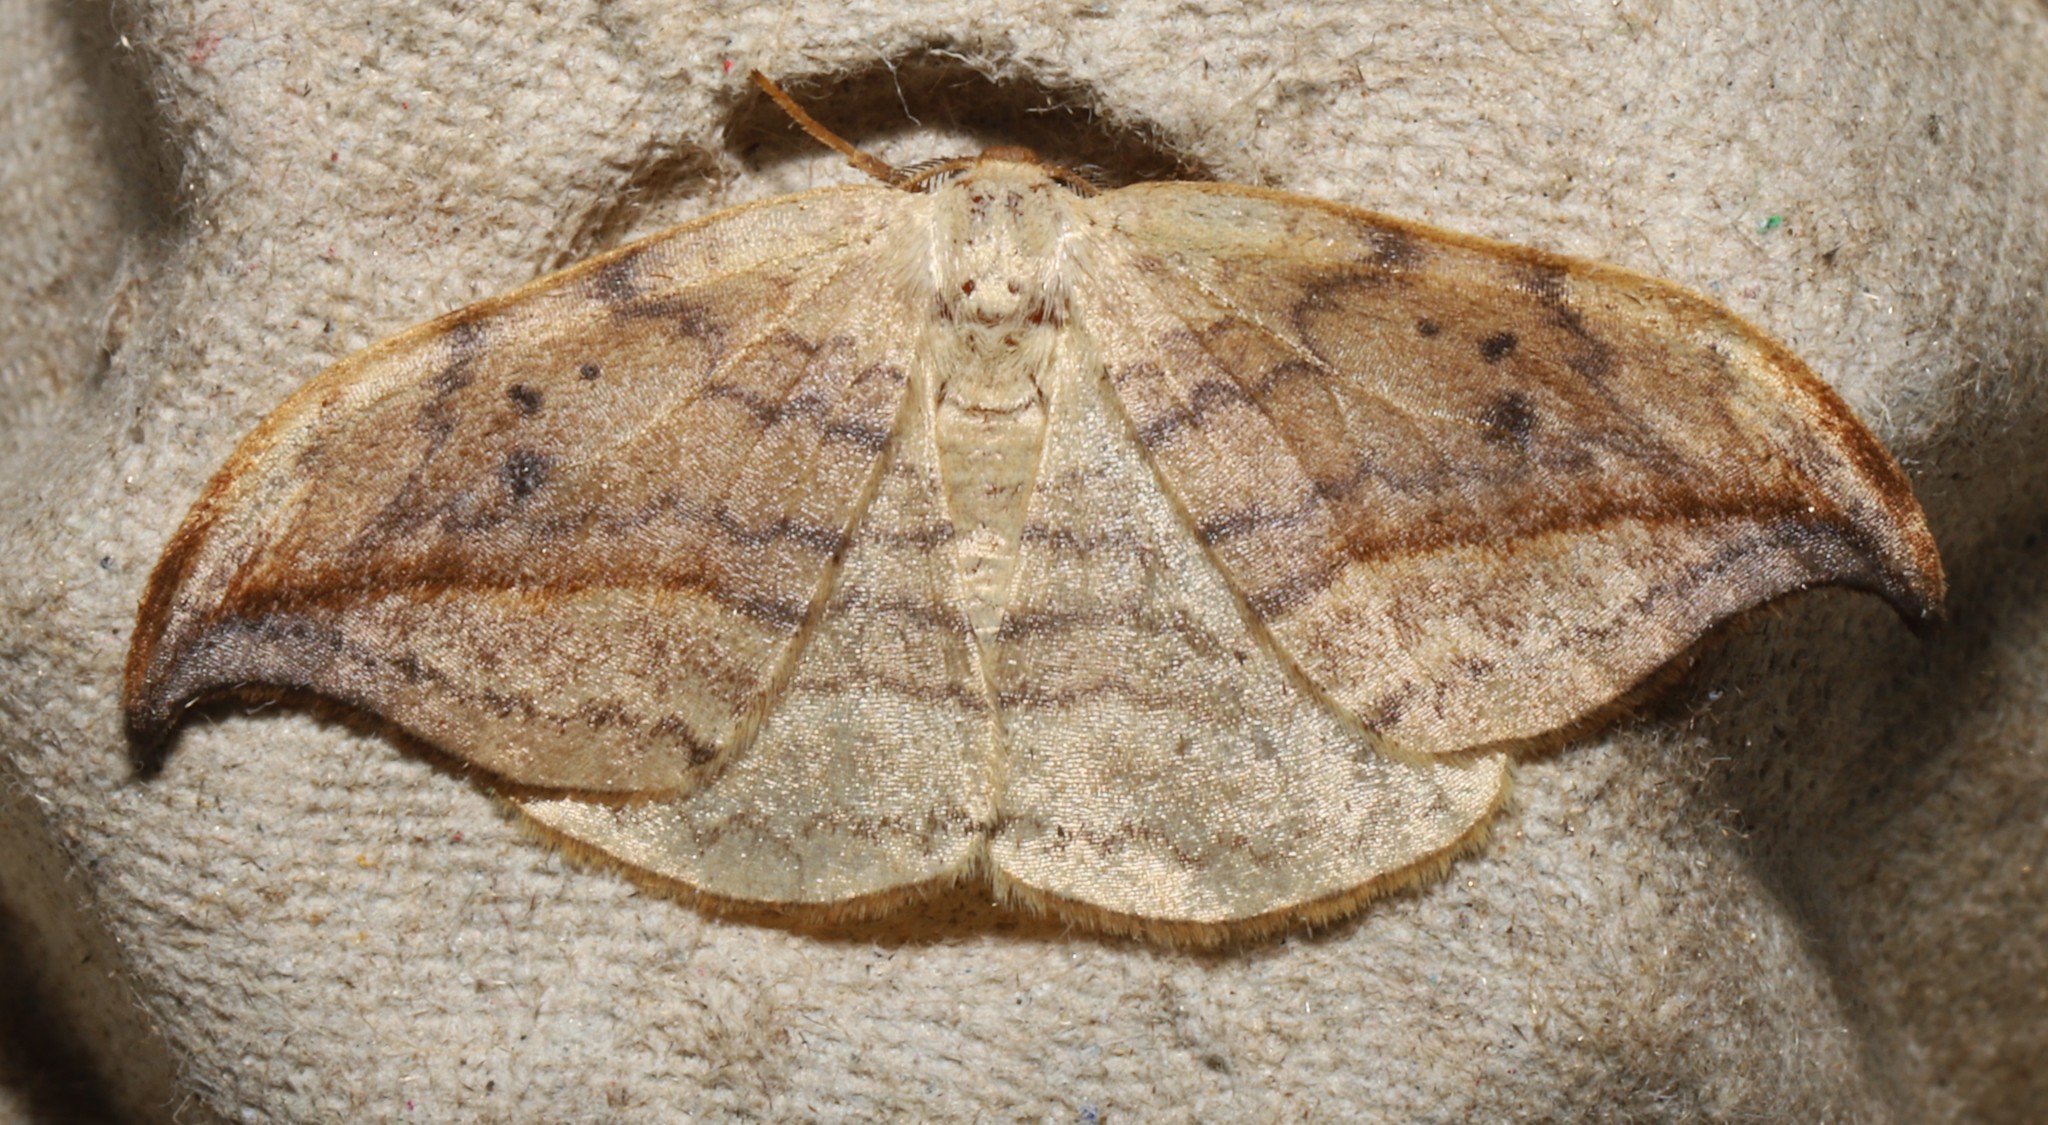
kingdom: Animalia
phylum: Arthropoda
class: Insecta
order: Lepidoptera
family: Drepanidae
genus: Drepana
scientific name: Drepana arcuata
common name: Arched hooktip moth
